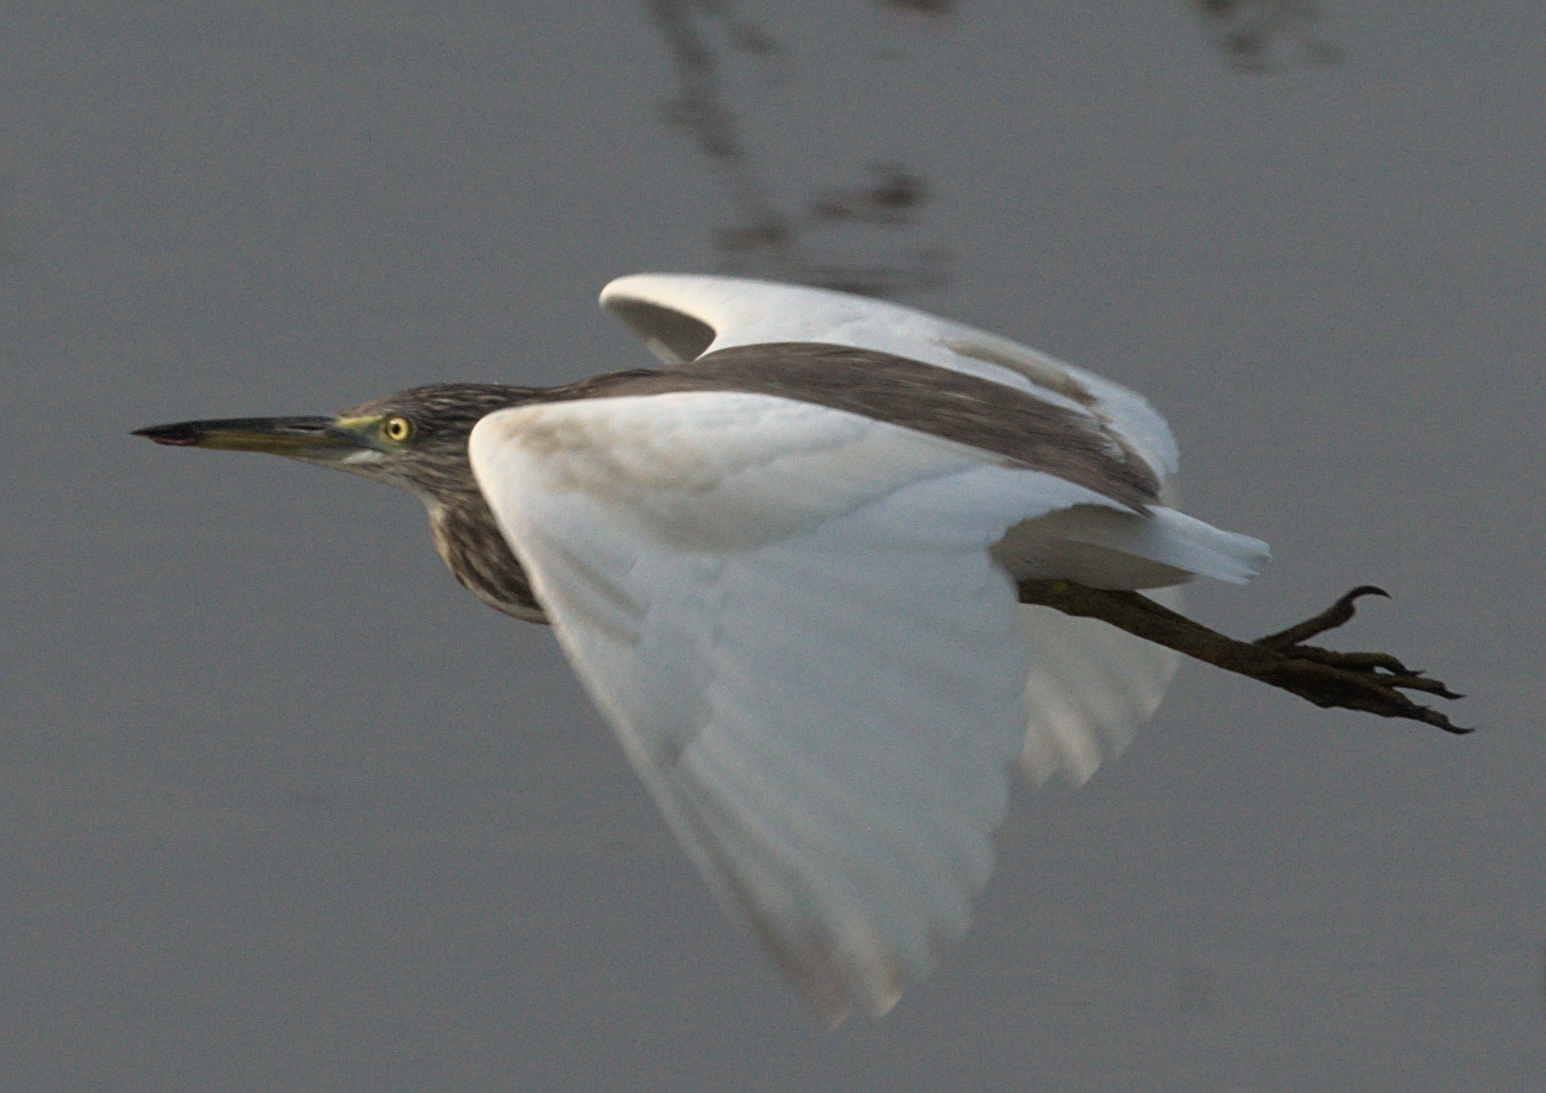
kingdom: Animalia
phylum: Chordata
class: Aves
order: Pelecaniformes
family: Ardeidae
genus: Ardeola
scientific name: Ardeola grayii
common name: Indian pond heron
